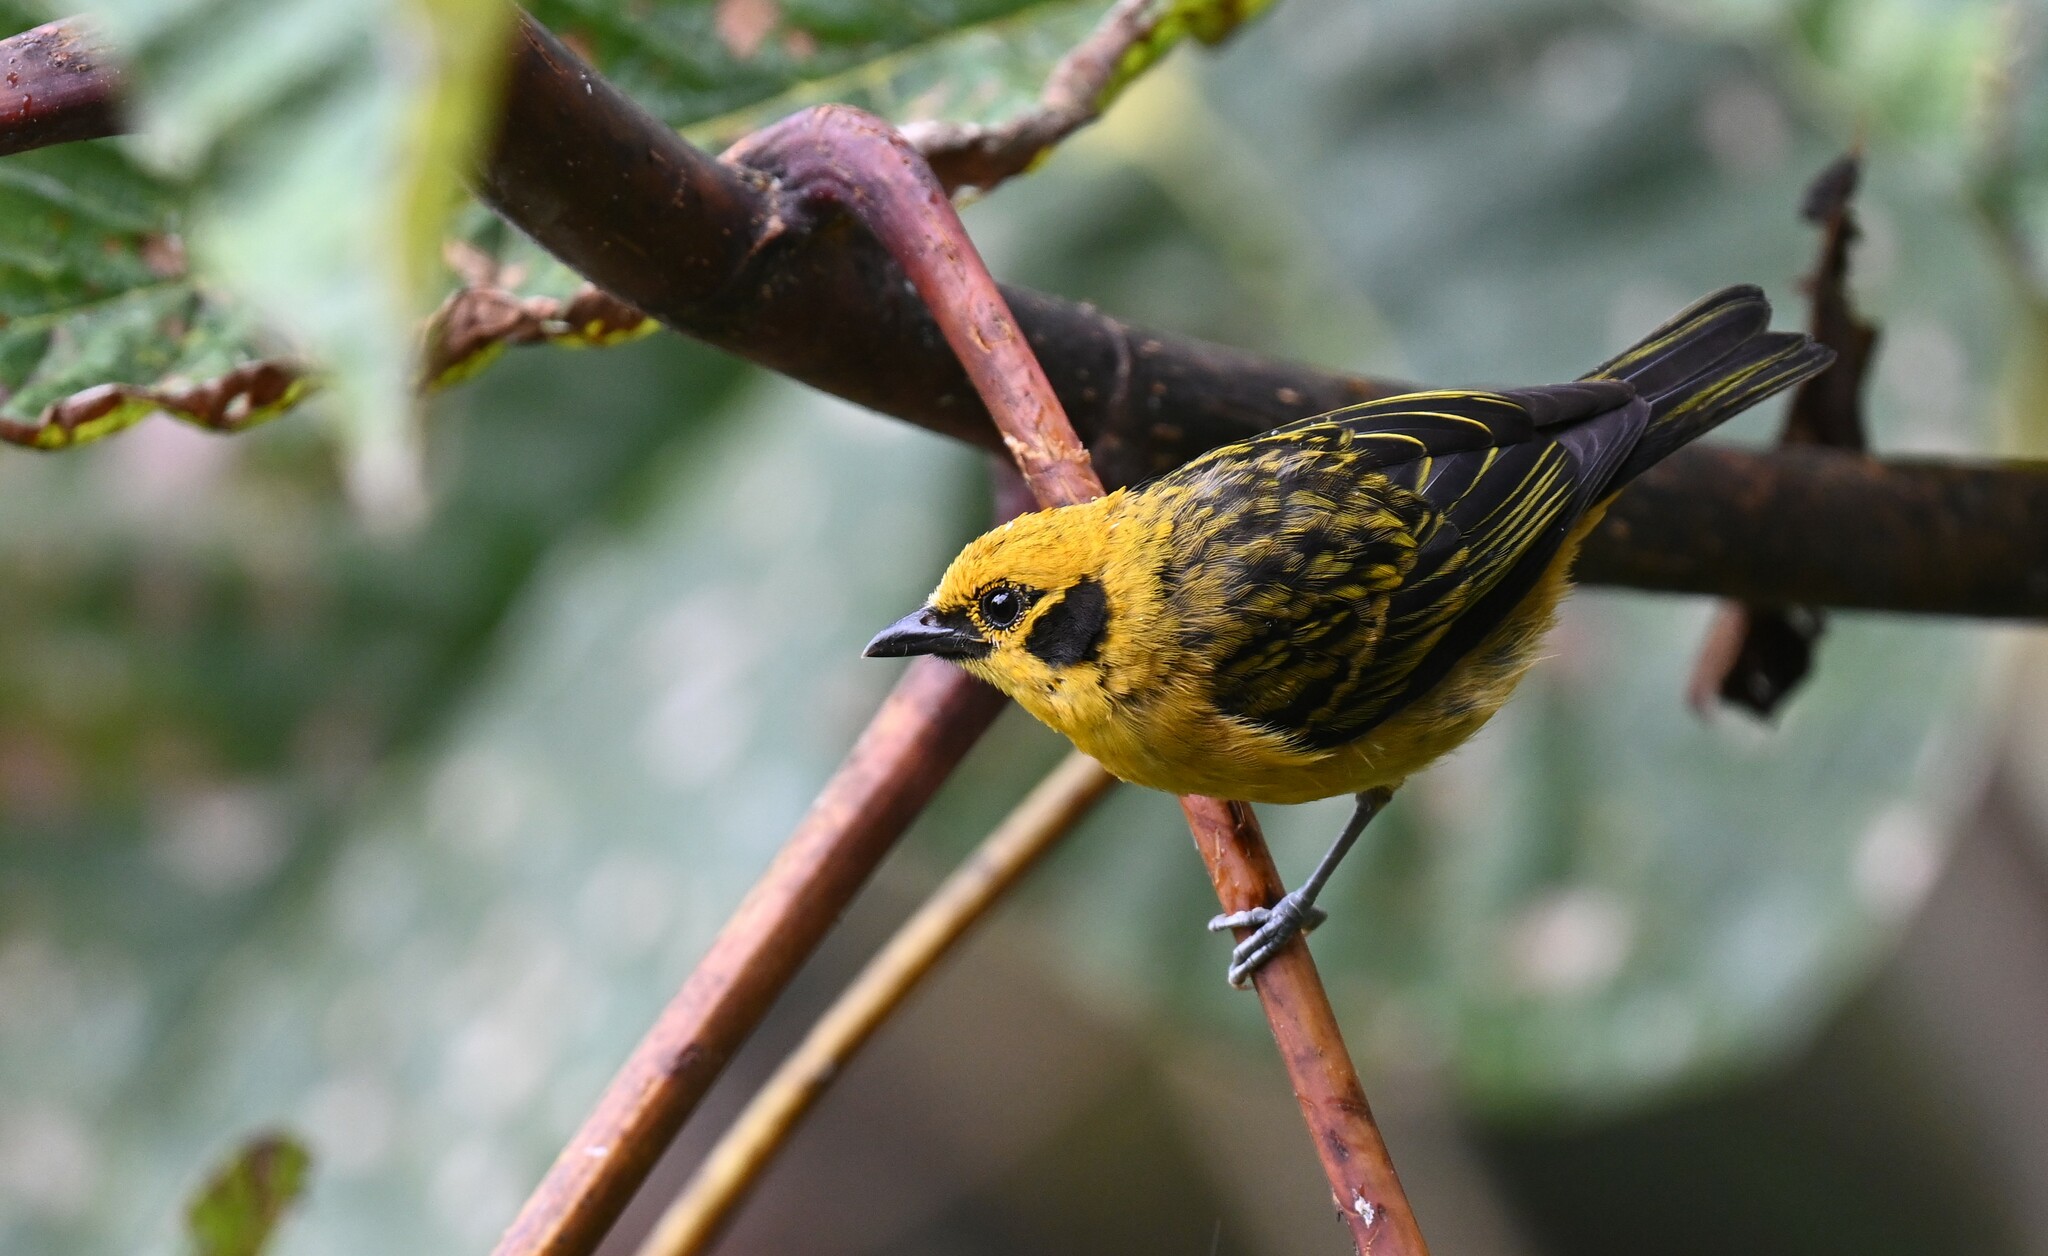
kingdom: Animalia
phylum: Chordata
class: Aves
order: Passeriformes
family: Thraupidae
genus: Tangara
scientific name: Tangara arthus
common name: Golden tanager
